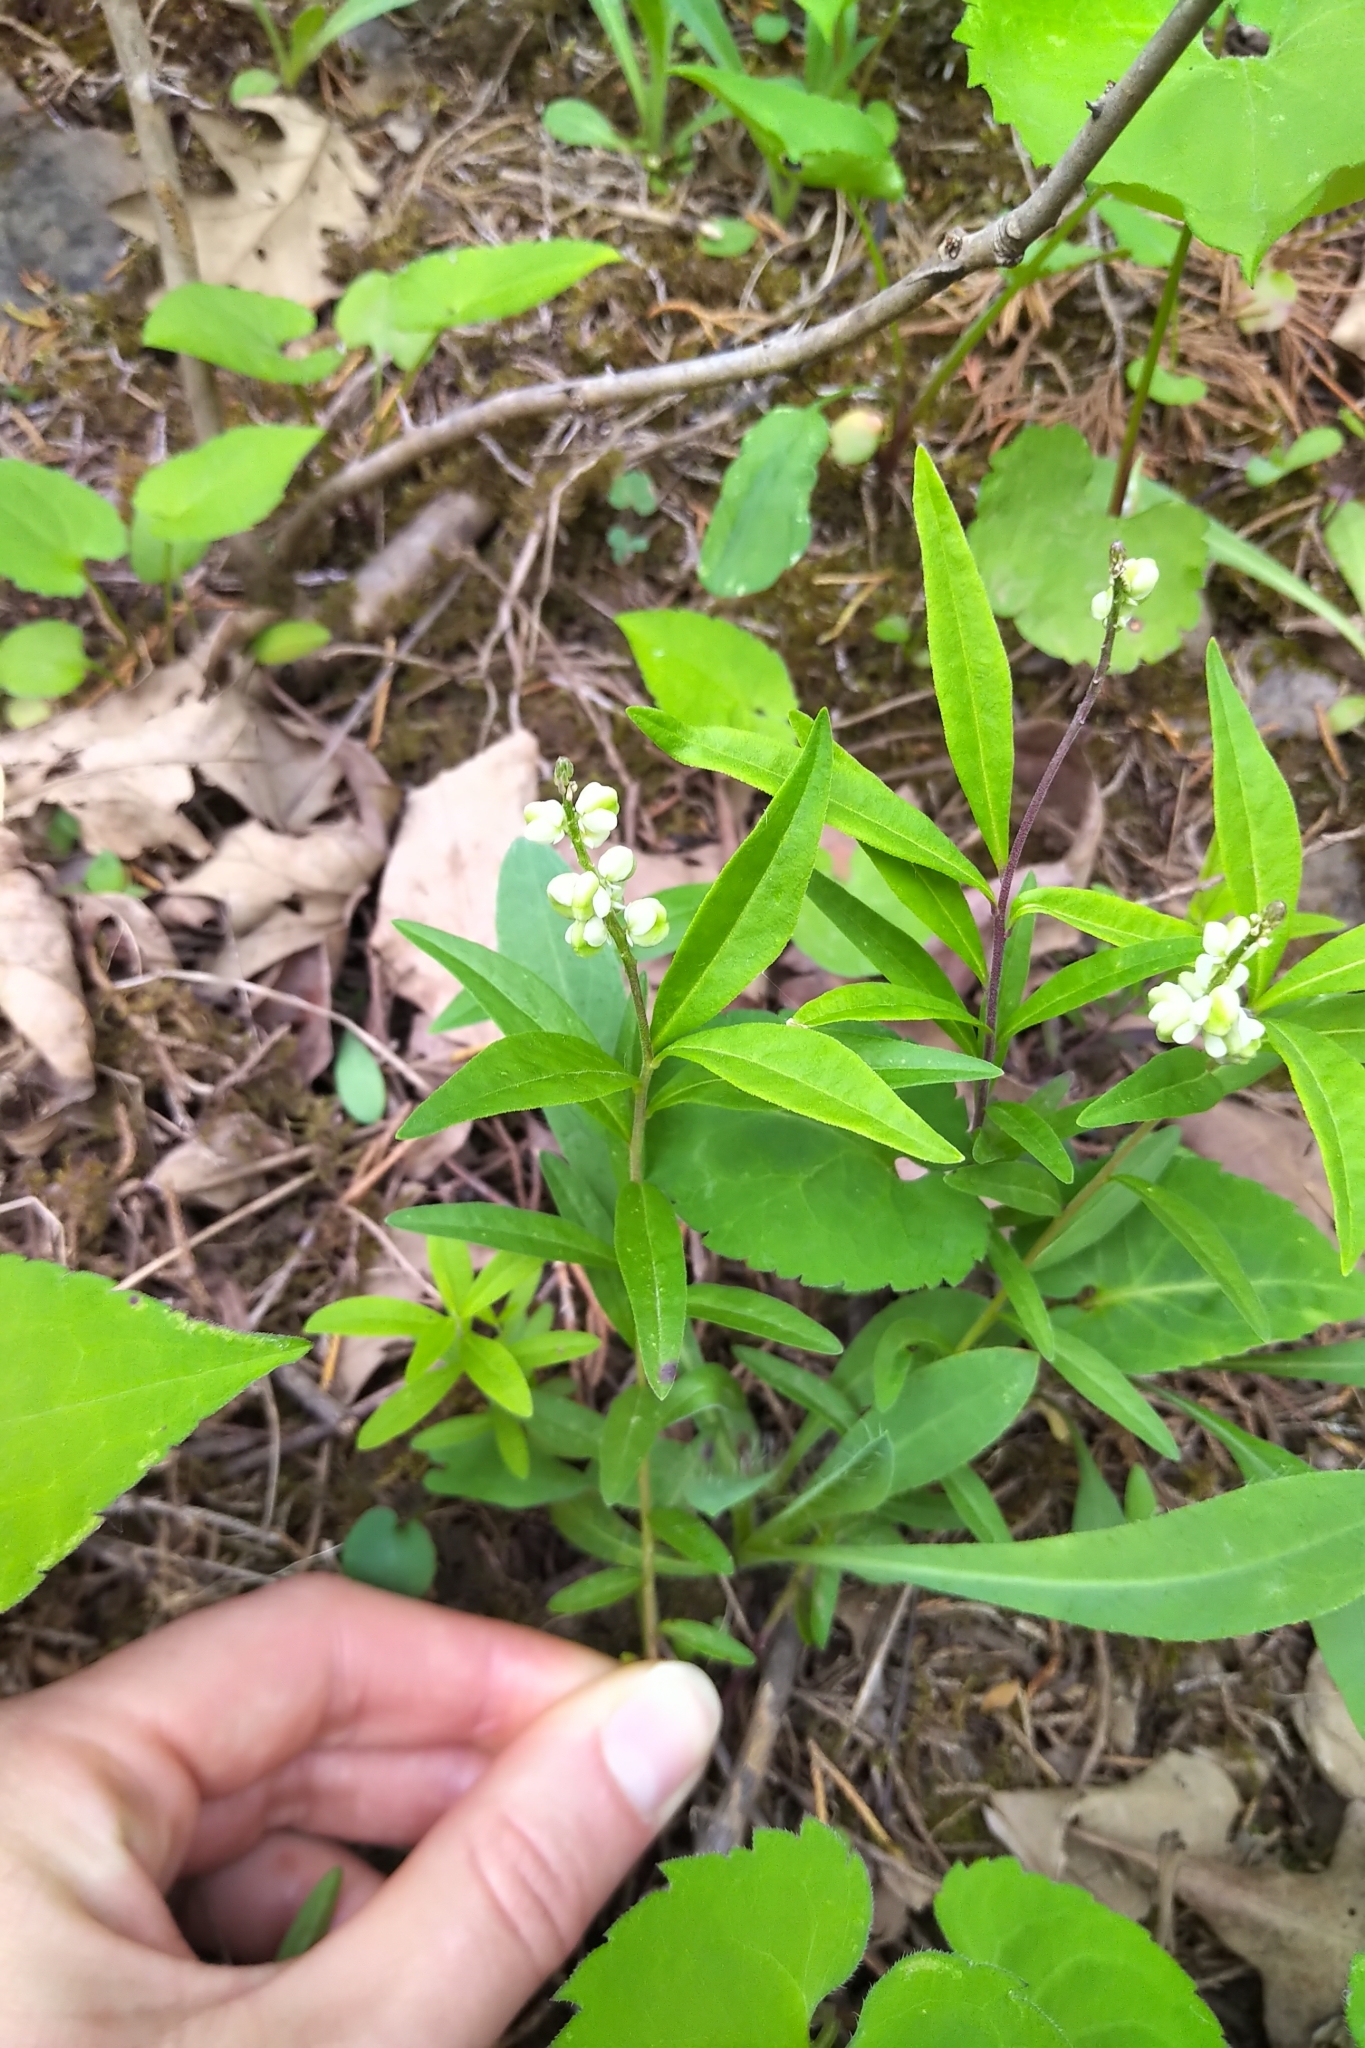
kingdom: Plantae
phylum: Tracheophyta
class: Magnoliopsida
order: Fabales
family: Polygalaceae
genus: Polygala
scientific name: Polygala senega
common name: Seneca snakeroot
